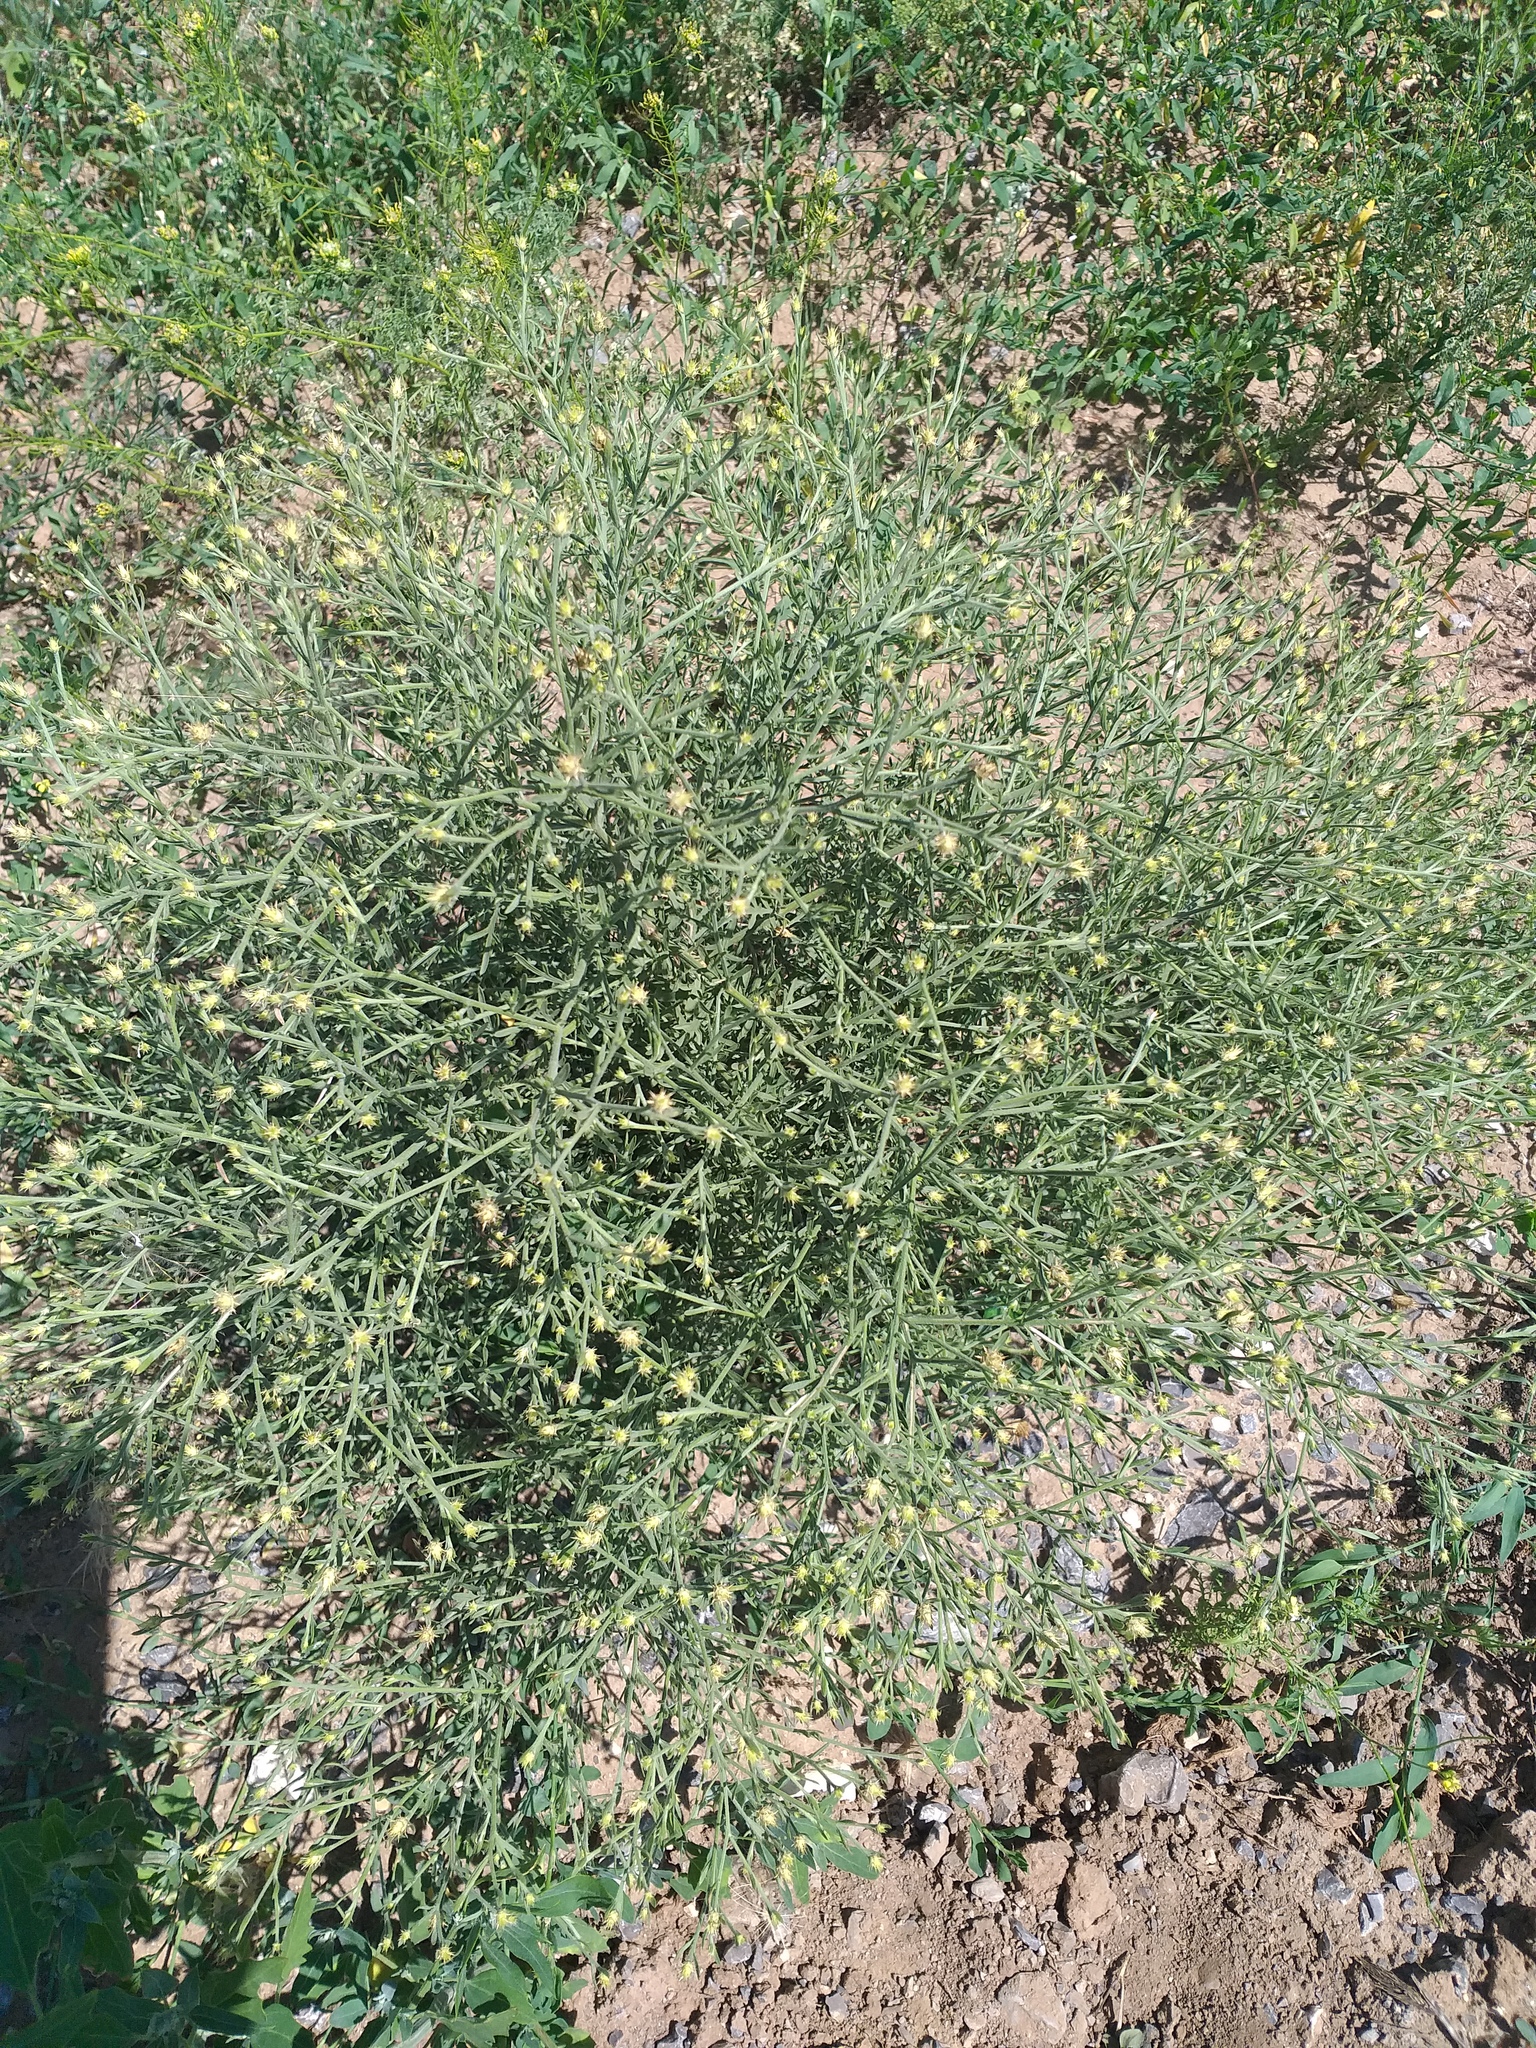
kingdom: Plantae
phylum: Tracheophyta
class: Magnoliopsida
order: Asterales
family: Asteraceae
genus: Centaurea
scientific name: Centaurea diffusa
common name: Diffuse knapweed
